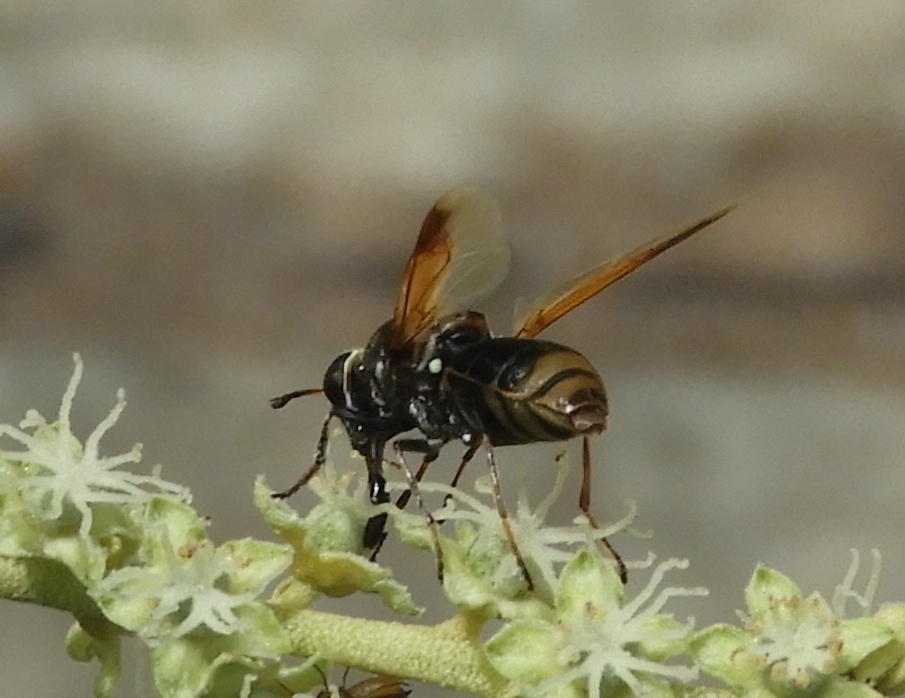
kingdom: Animalia
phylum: Arthropoda
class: Insecta
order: Diptera
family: Stratiomyidae
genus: Hoplitimyia
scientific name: Hoplitimyia mutabilis
